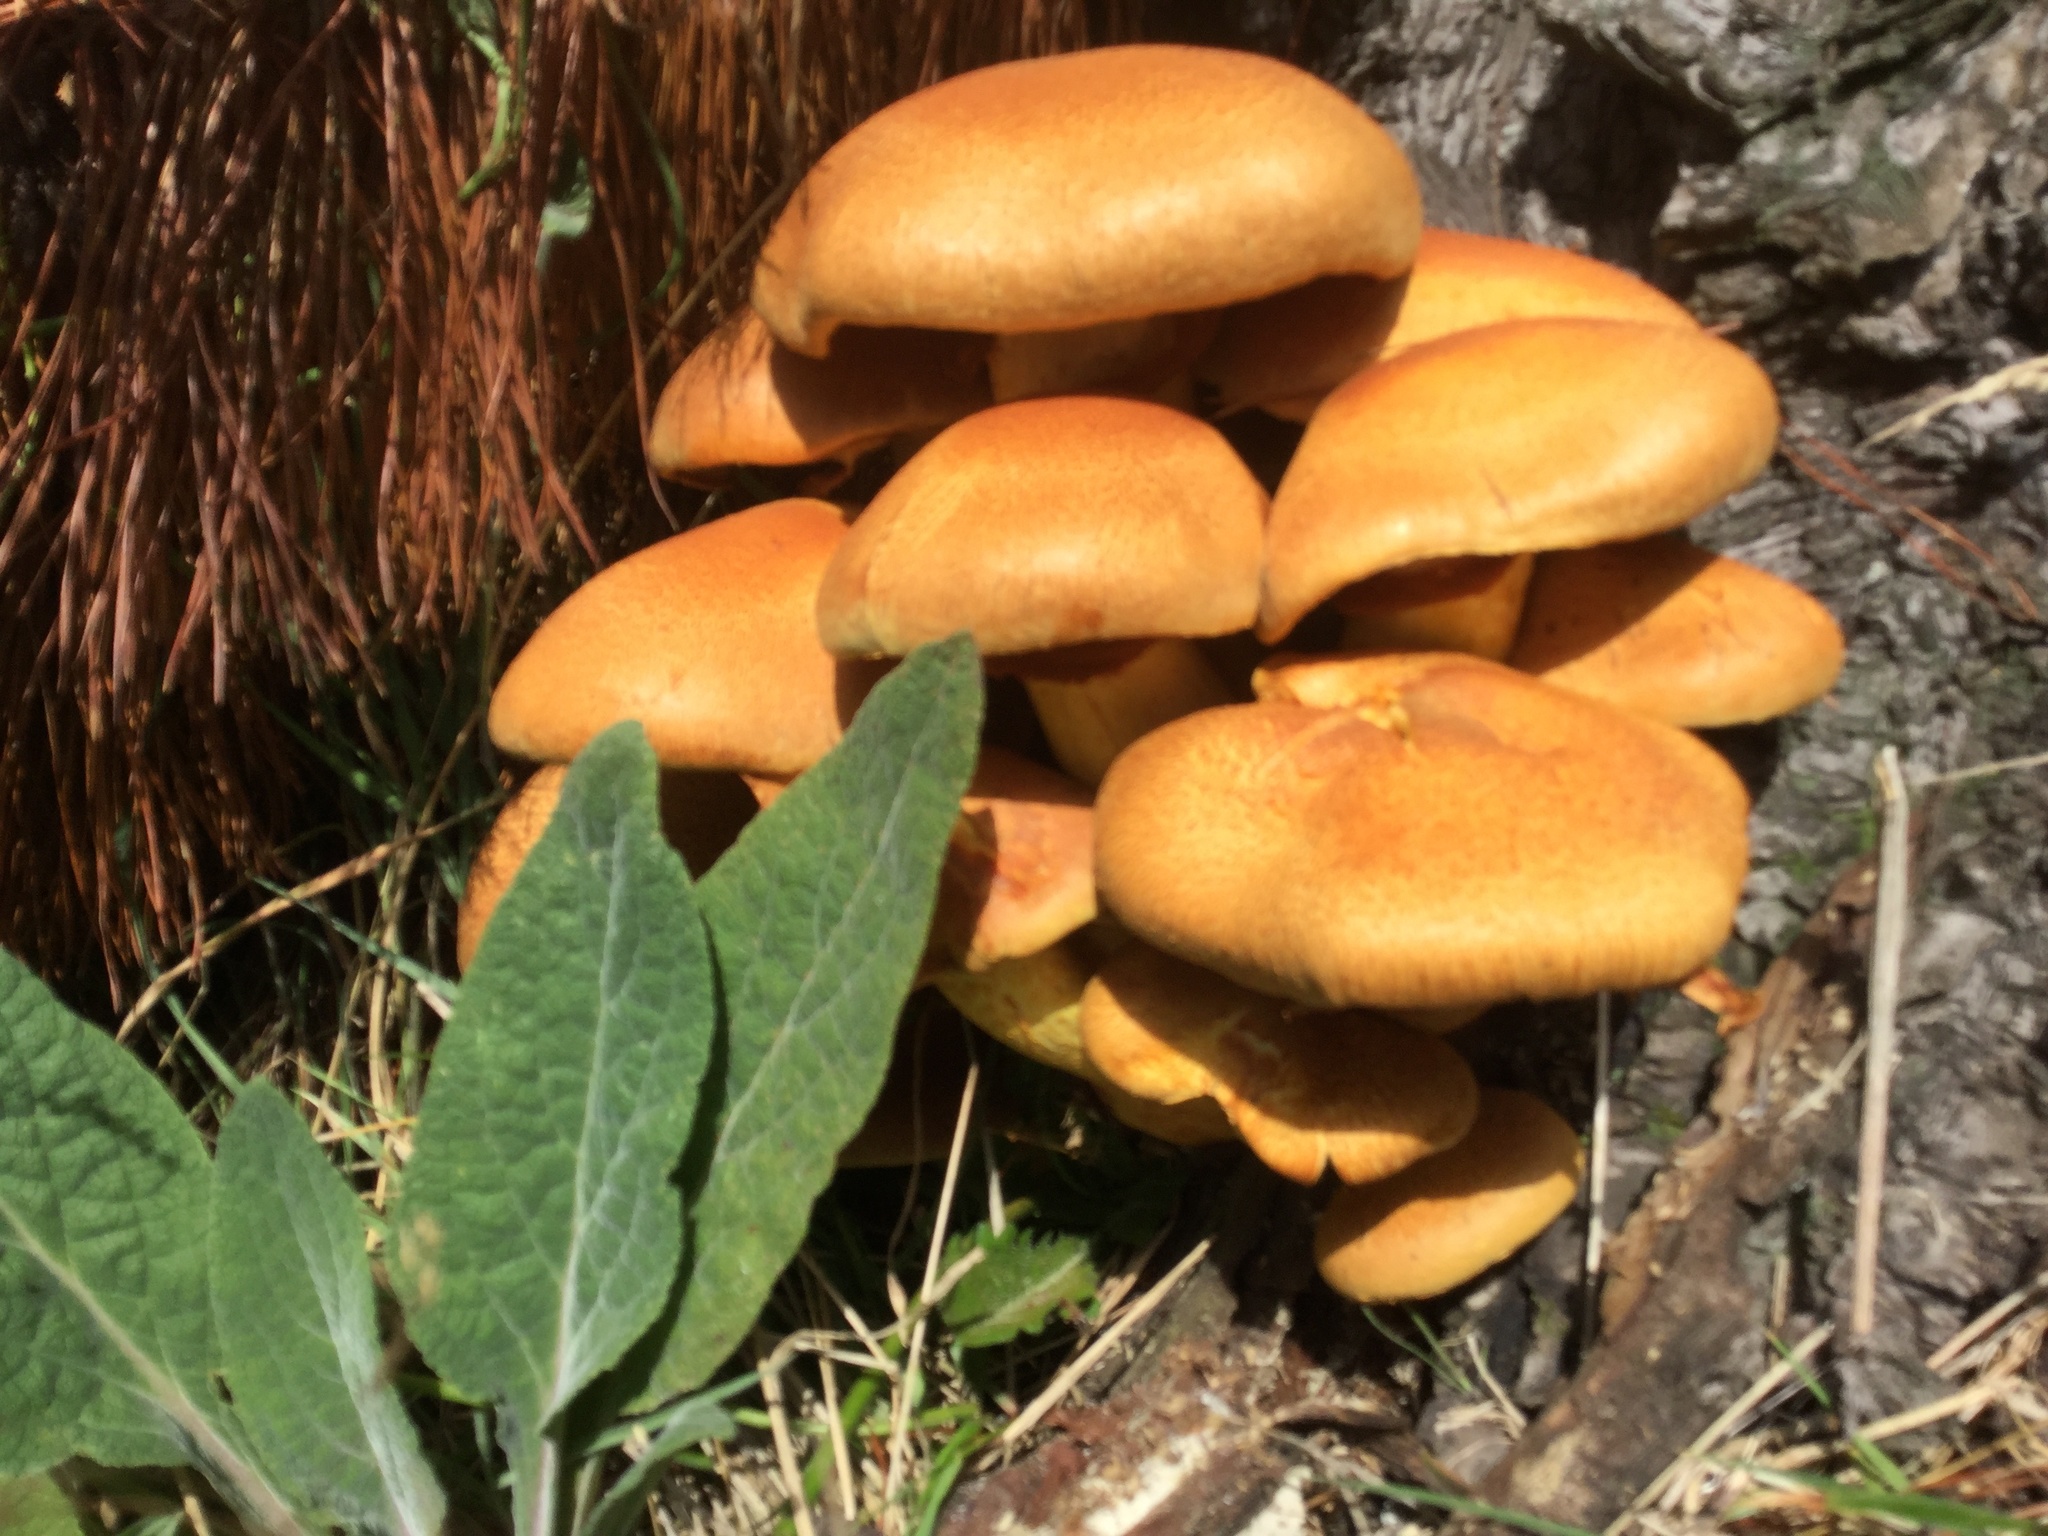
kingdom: Fungi
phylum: Basidiomycota
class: Agaricomycetes
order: Agaricales
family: Hymenogastraceae
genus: Gymnopilus
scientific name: Gymnopilus junonius
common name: Spectacular rustgill
